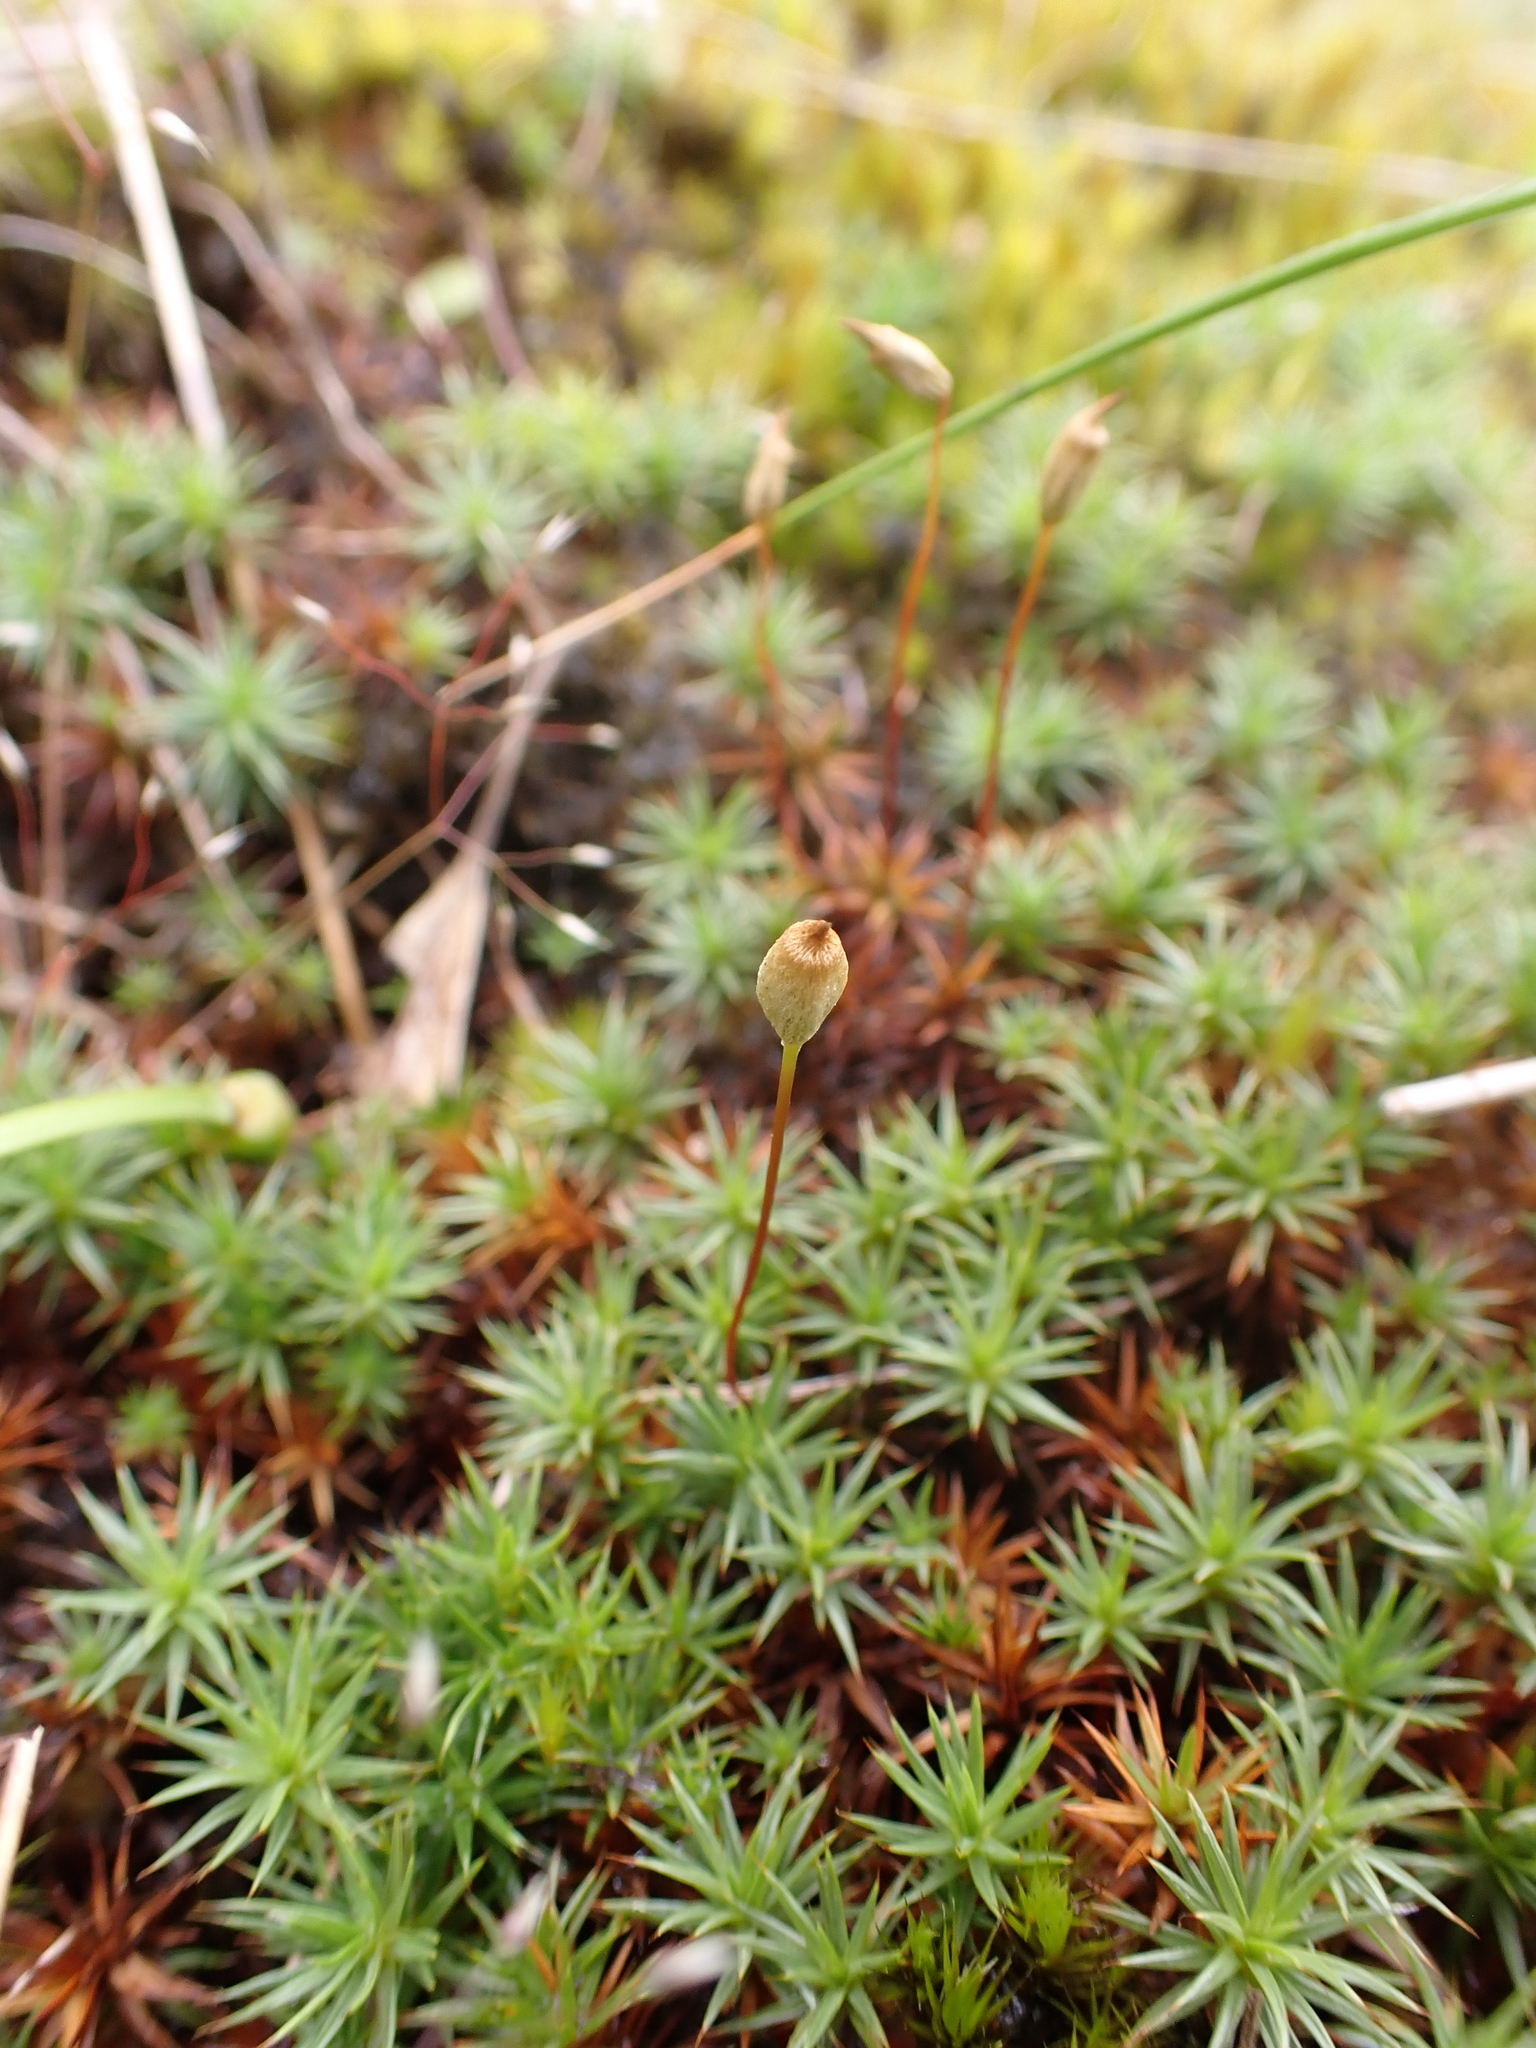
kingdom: Plantae
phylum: Bryophyta
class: Polytrichopsida
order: Polytrichales
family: Polytrichaceae
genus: Polytrichum
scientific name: Polytrichum juniperinum
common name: Juniper haircap moss
